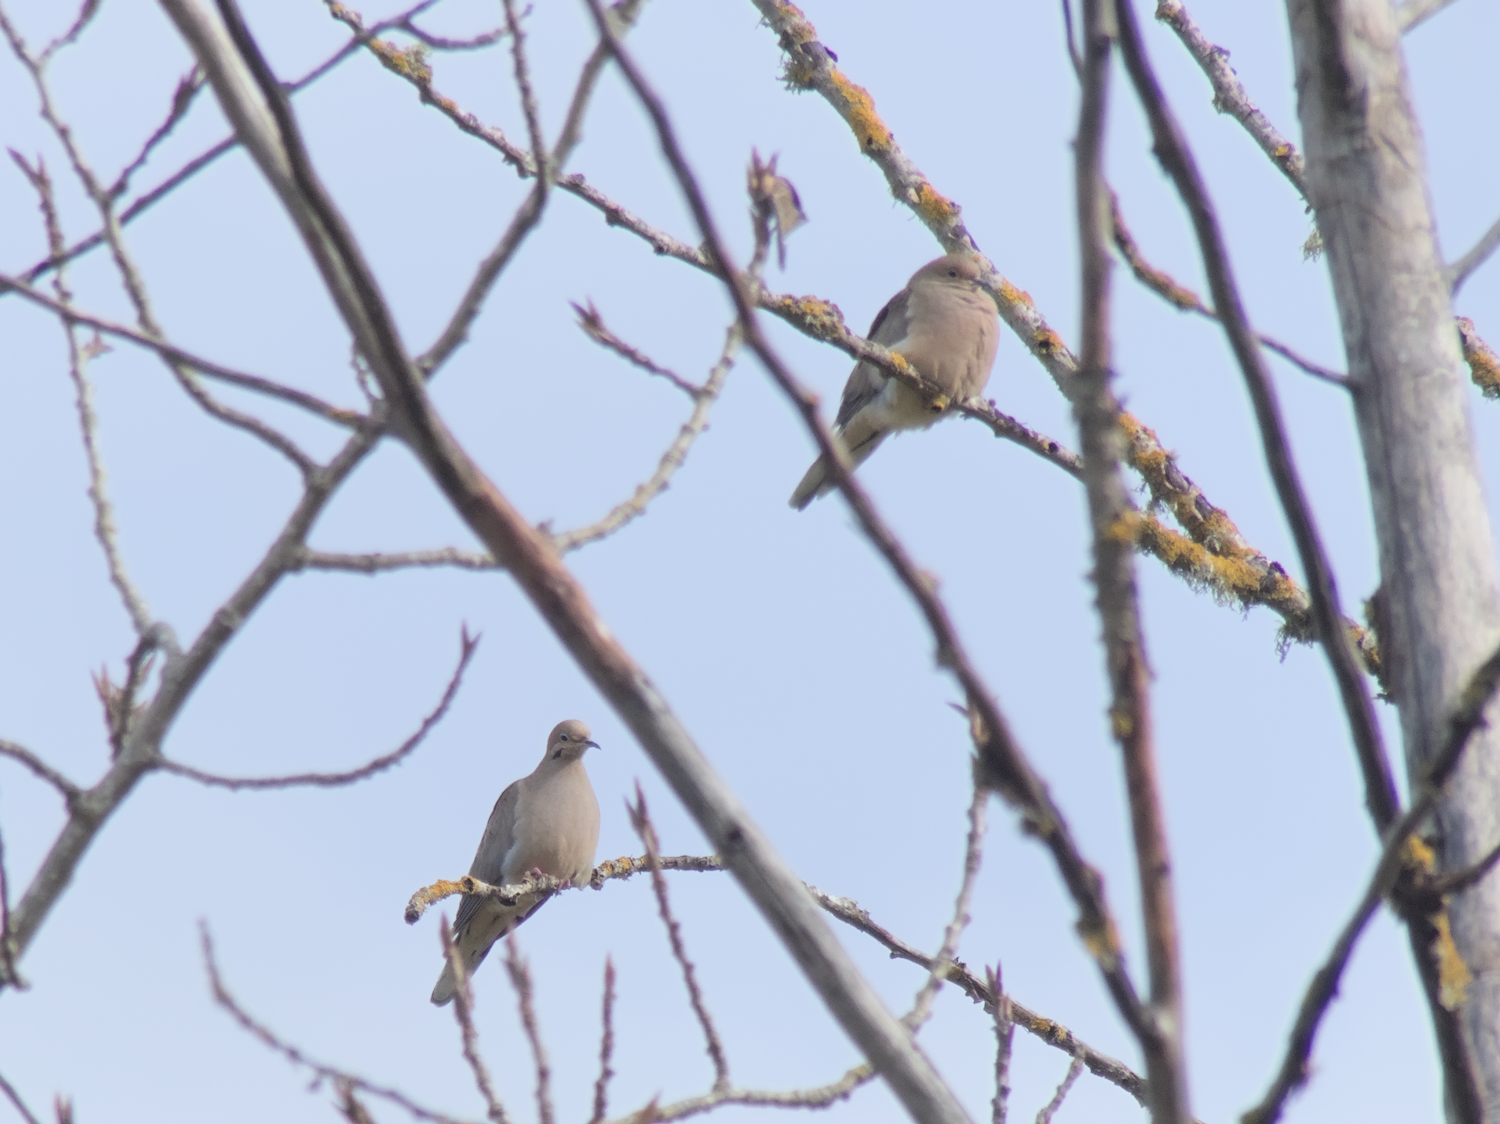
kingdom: Animalia
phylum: Chordata
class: Aves
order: Columbiformes
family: Columbidae
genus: Zenaida
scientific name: Zenaida macroura
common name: Mourning dove
